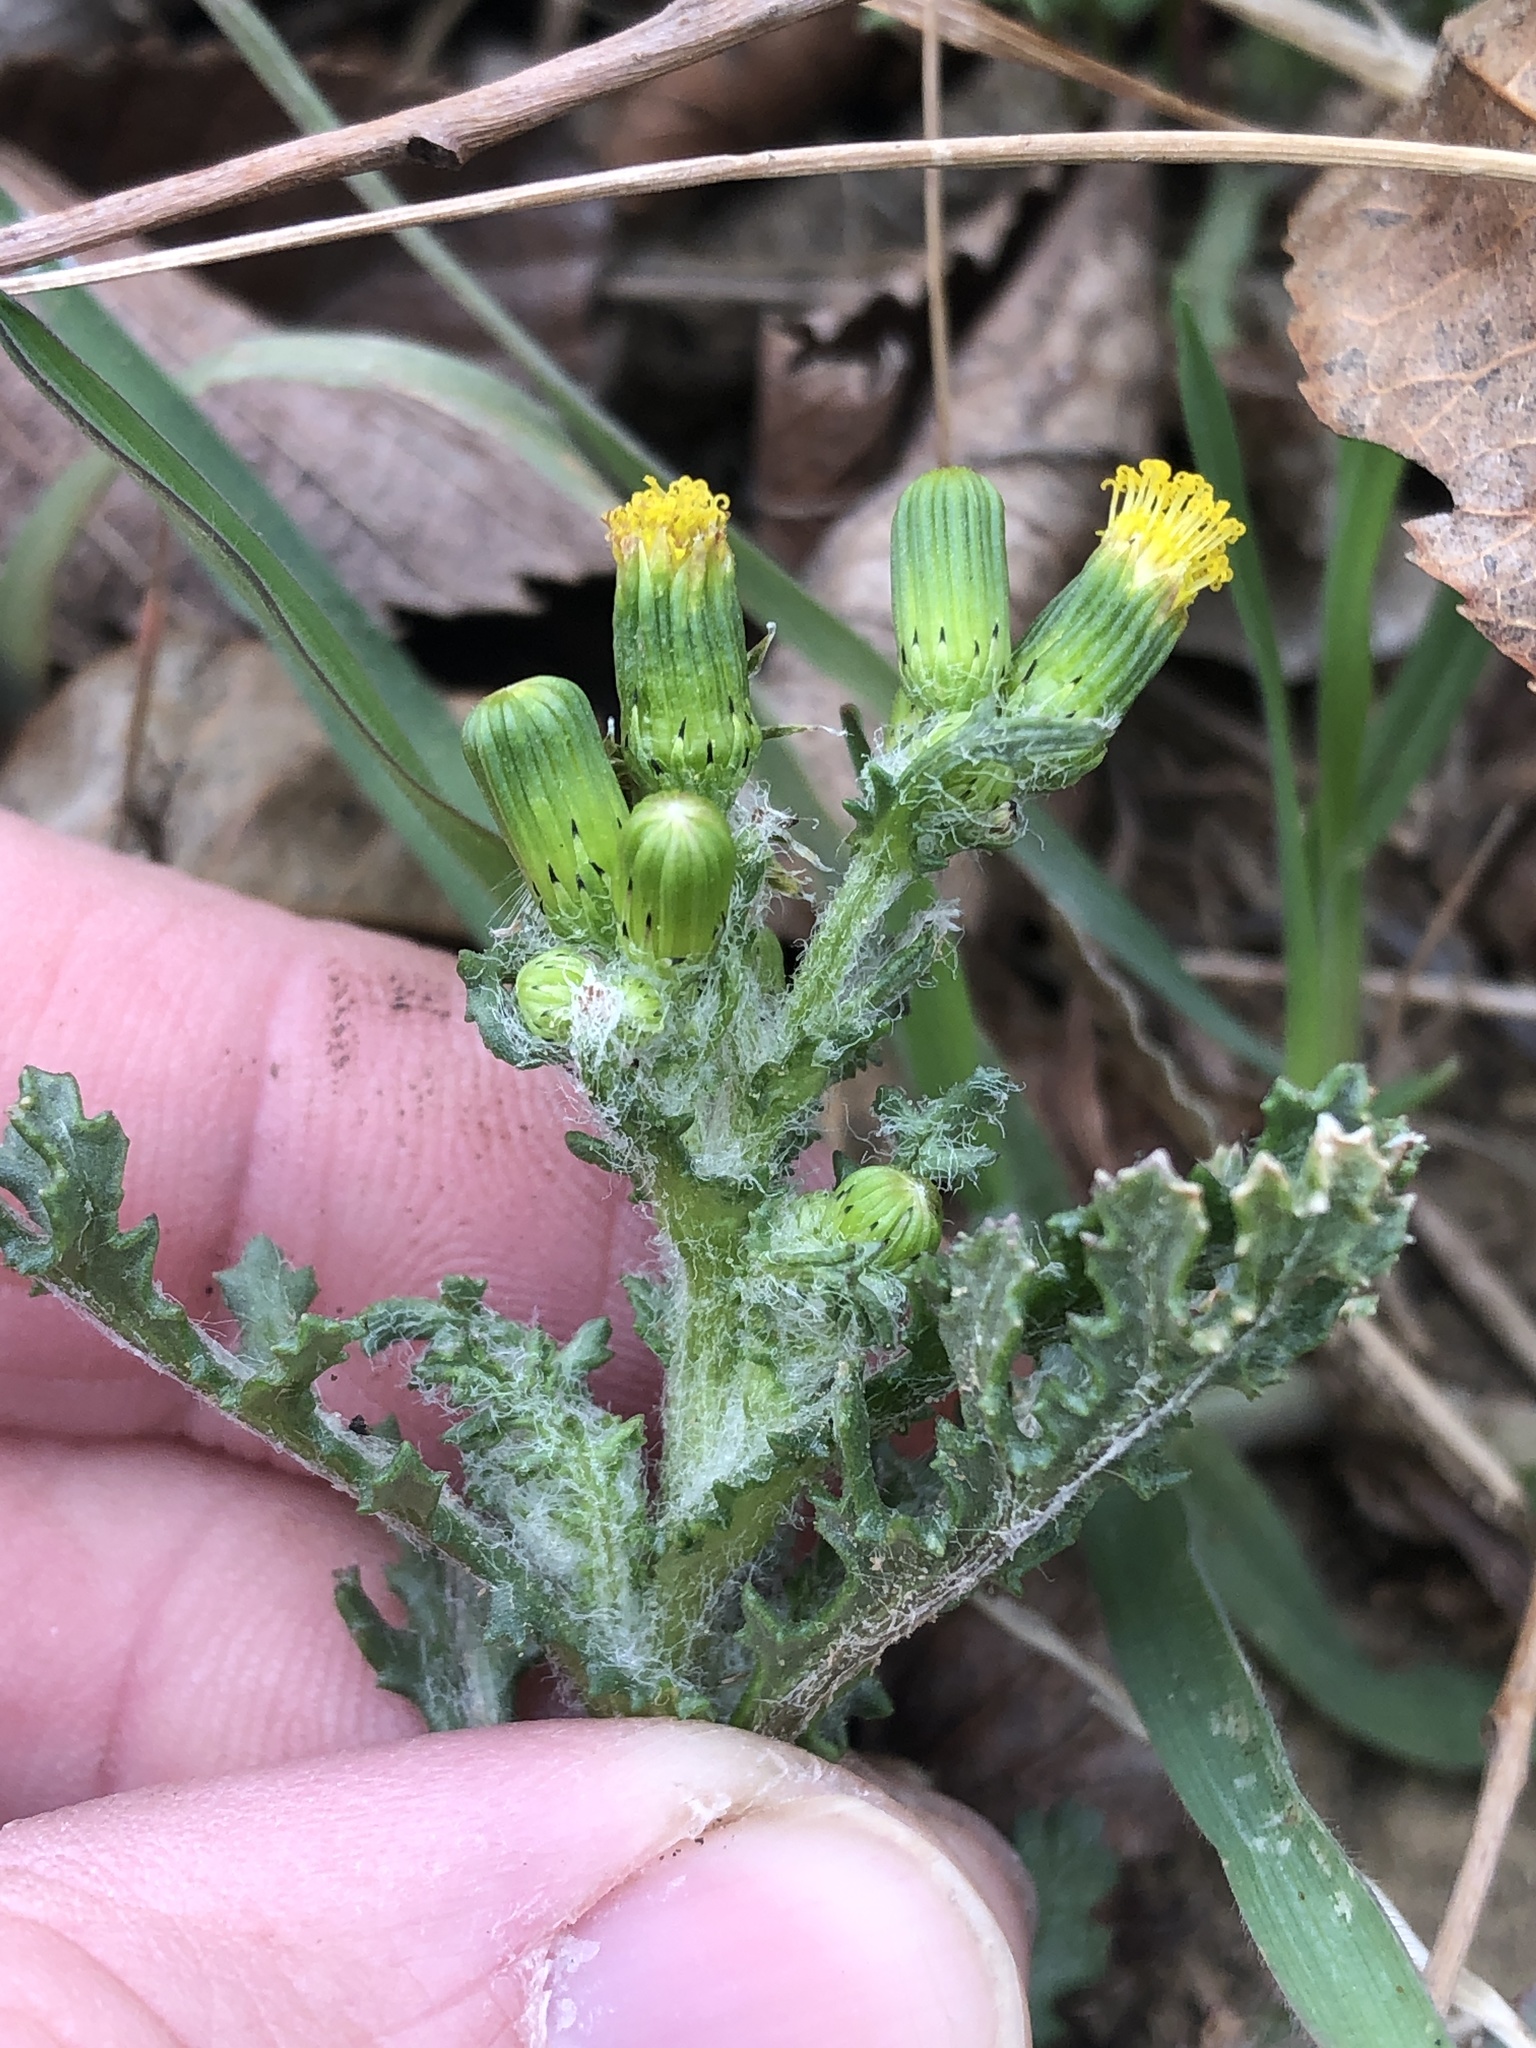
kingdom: Plantae
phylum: Tracheophyta
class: Magnoliopsida
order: Asterales
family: Asteraceae
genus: Senecio
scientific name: Senecio vulgaris
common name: Old-man-in-the-spring
